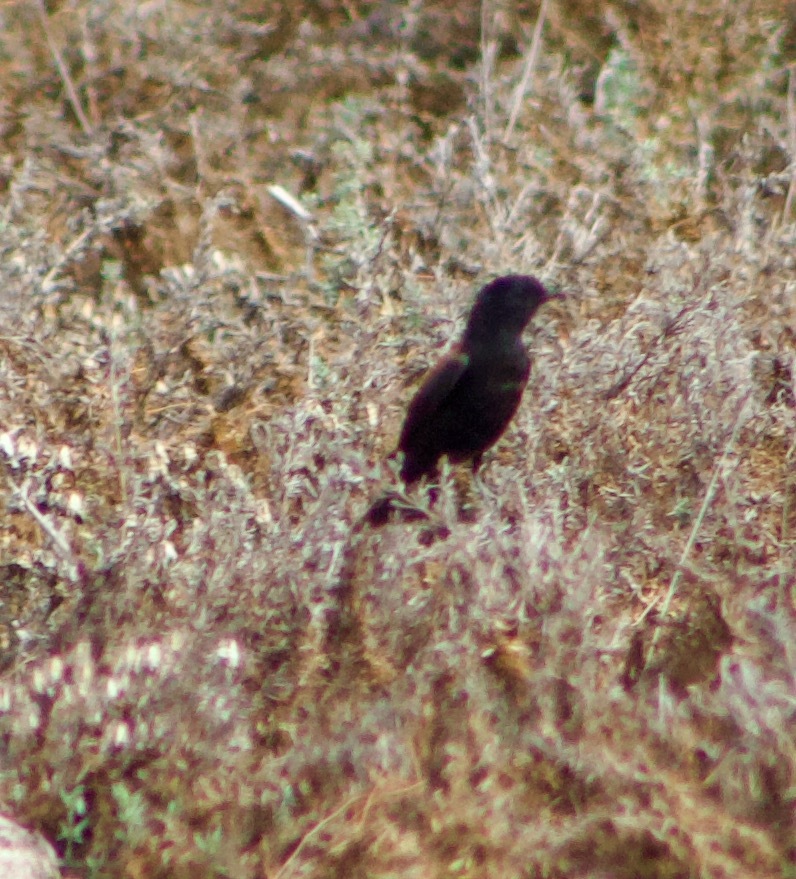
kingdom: Animalia
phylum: Chordata
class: Aves
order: Passeriformes
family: Tyrannidae
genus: Lessonia
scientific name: Lessonia rufa
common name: Austral negrito
